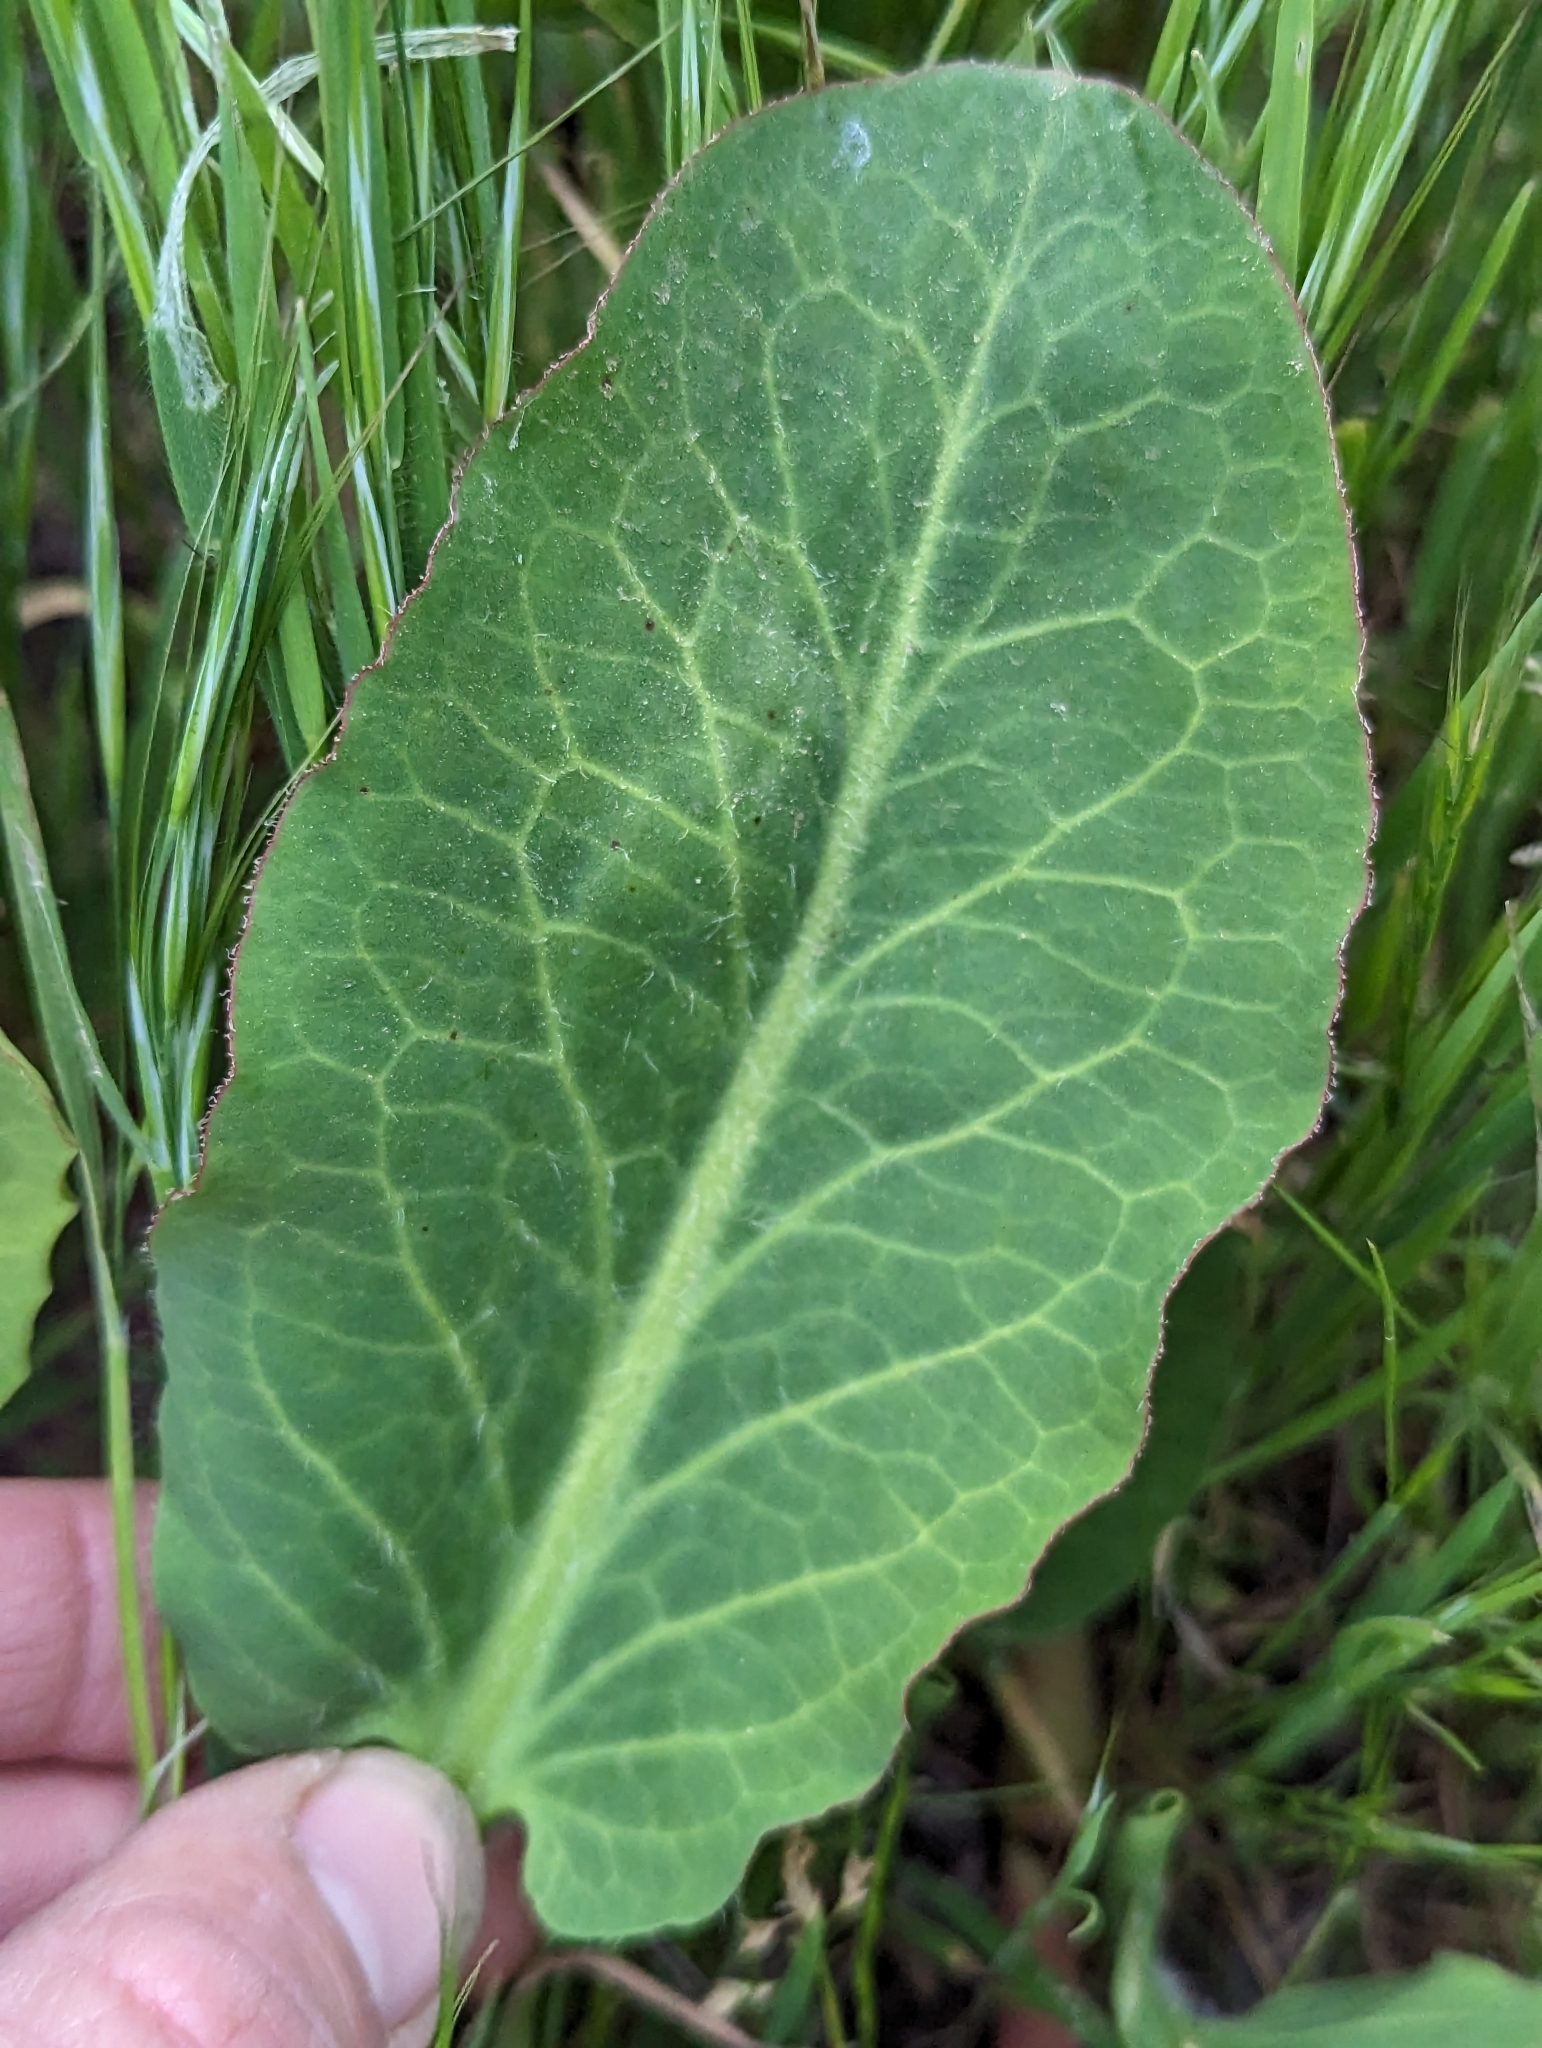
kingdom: Plantae
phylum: Tracheophyta
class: Magnoliopsida
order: Piperales
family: Saururaceae
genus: Anemopsis
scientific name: Anemopsis californica
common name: Apache-beads
